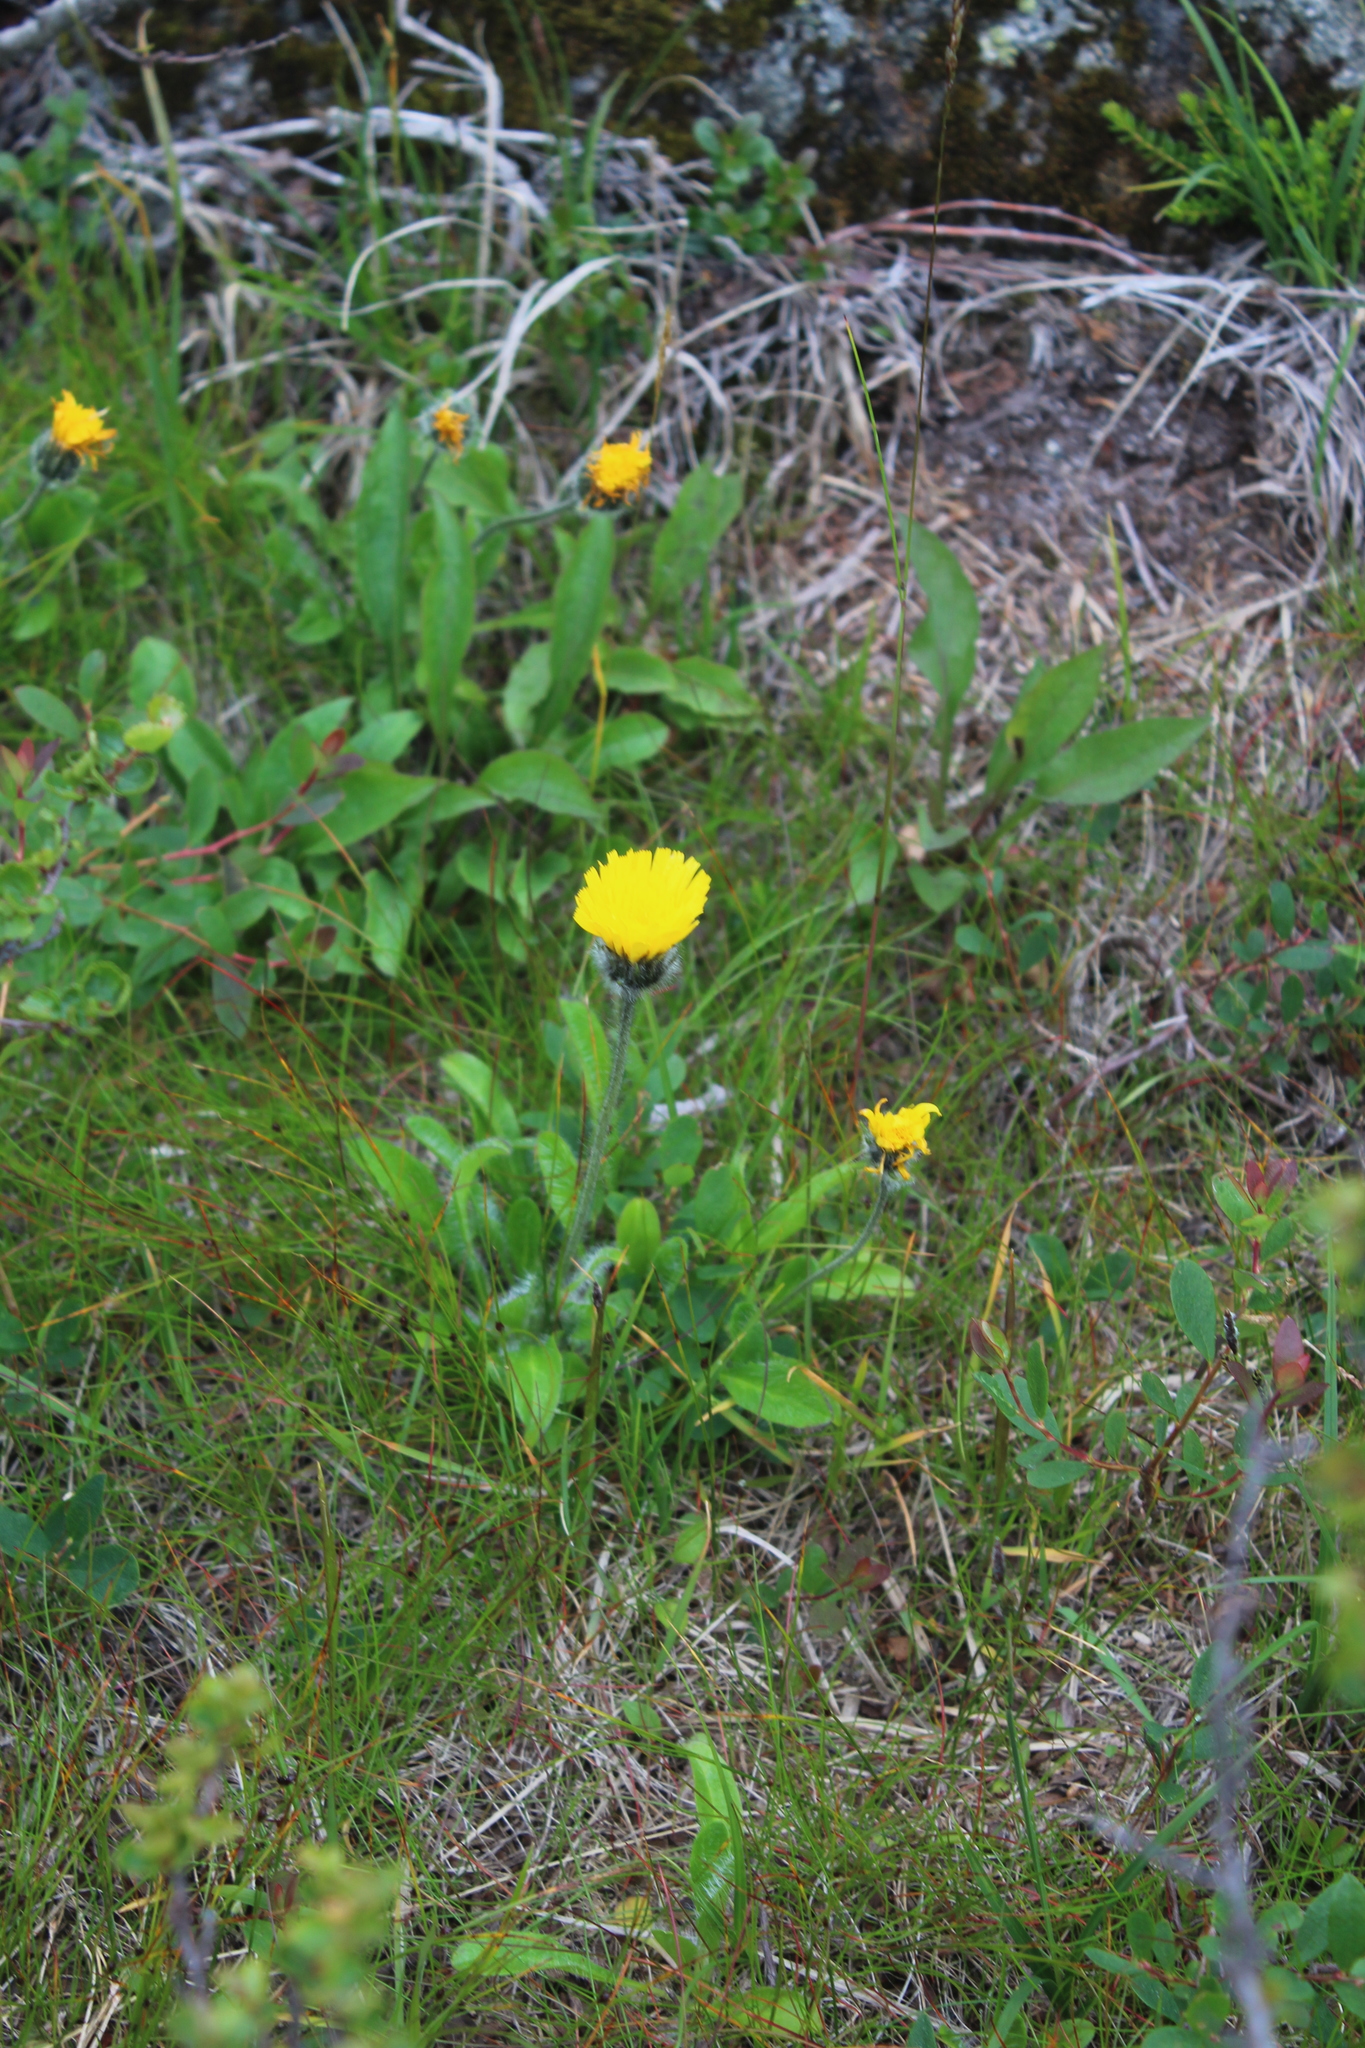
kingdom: Plantae
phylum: Tracheophyta
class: Magnoliopsida
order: Asterales
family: Asteraceae
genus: Hieracium
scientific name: Hieracium alpinum
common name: Alpine hawkweed
